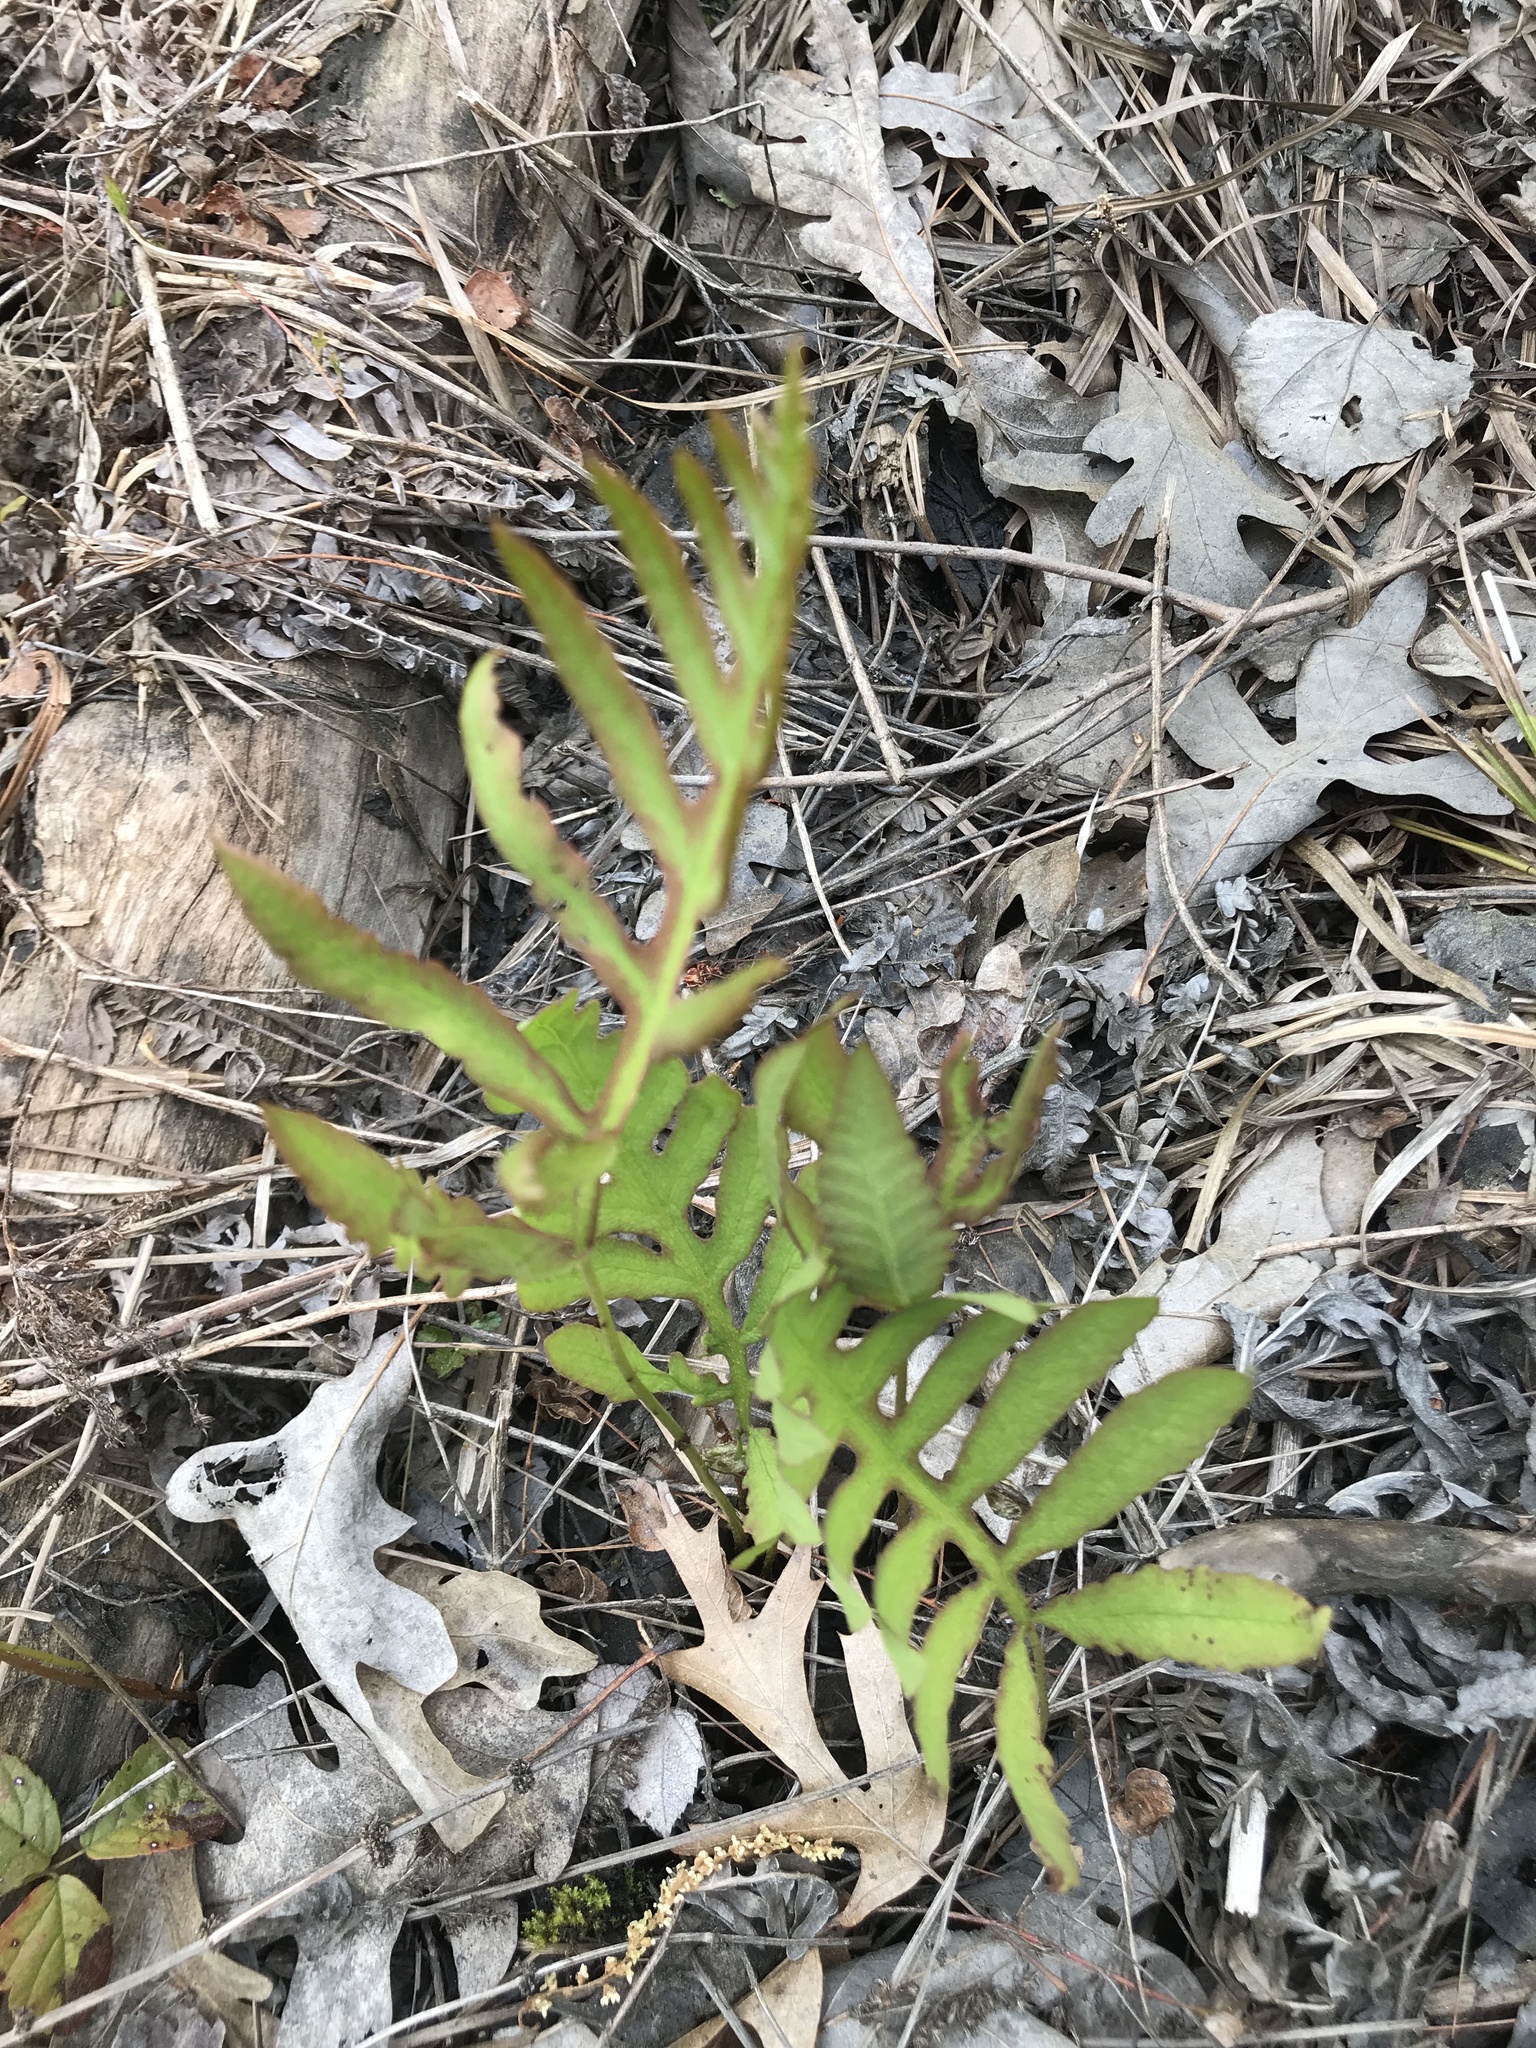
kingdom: Plantae
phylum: Tracheophyta
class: Polypodiopsida
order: Polypodiales
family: Onocleaceae
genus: Onoclea
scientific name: Onoclea sensibilis
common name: Sensitive fern
